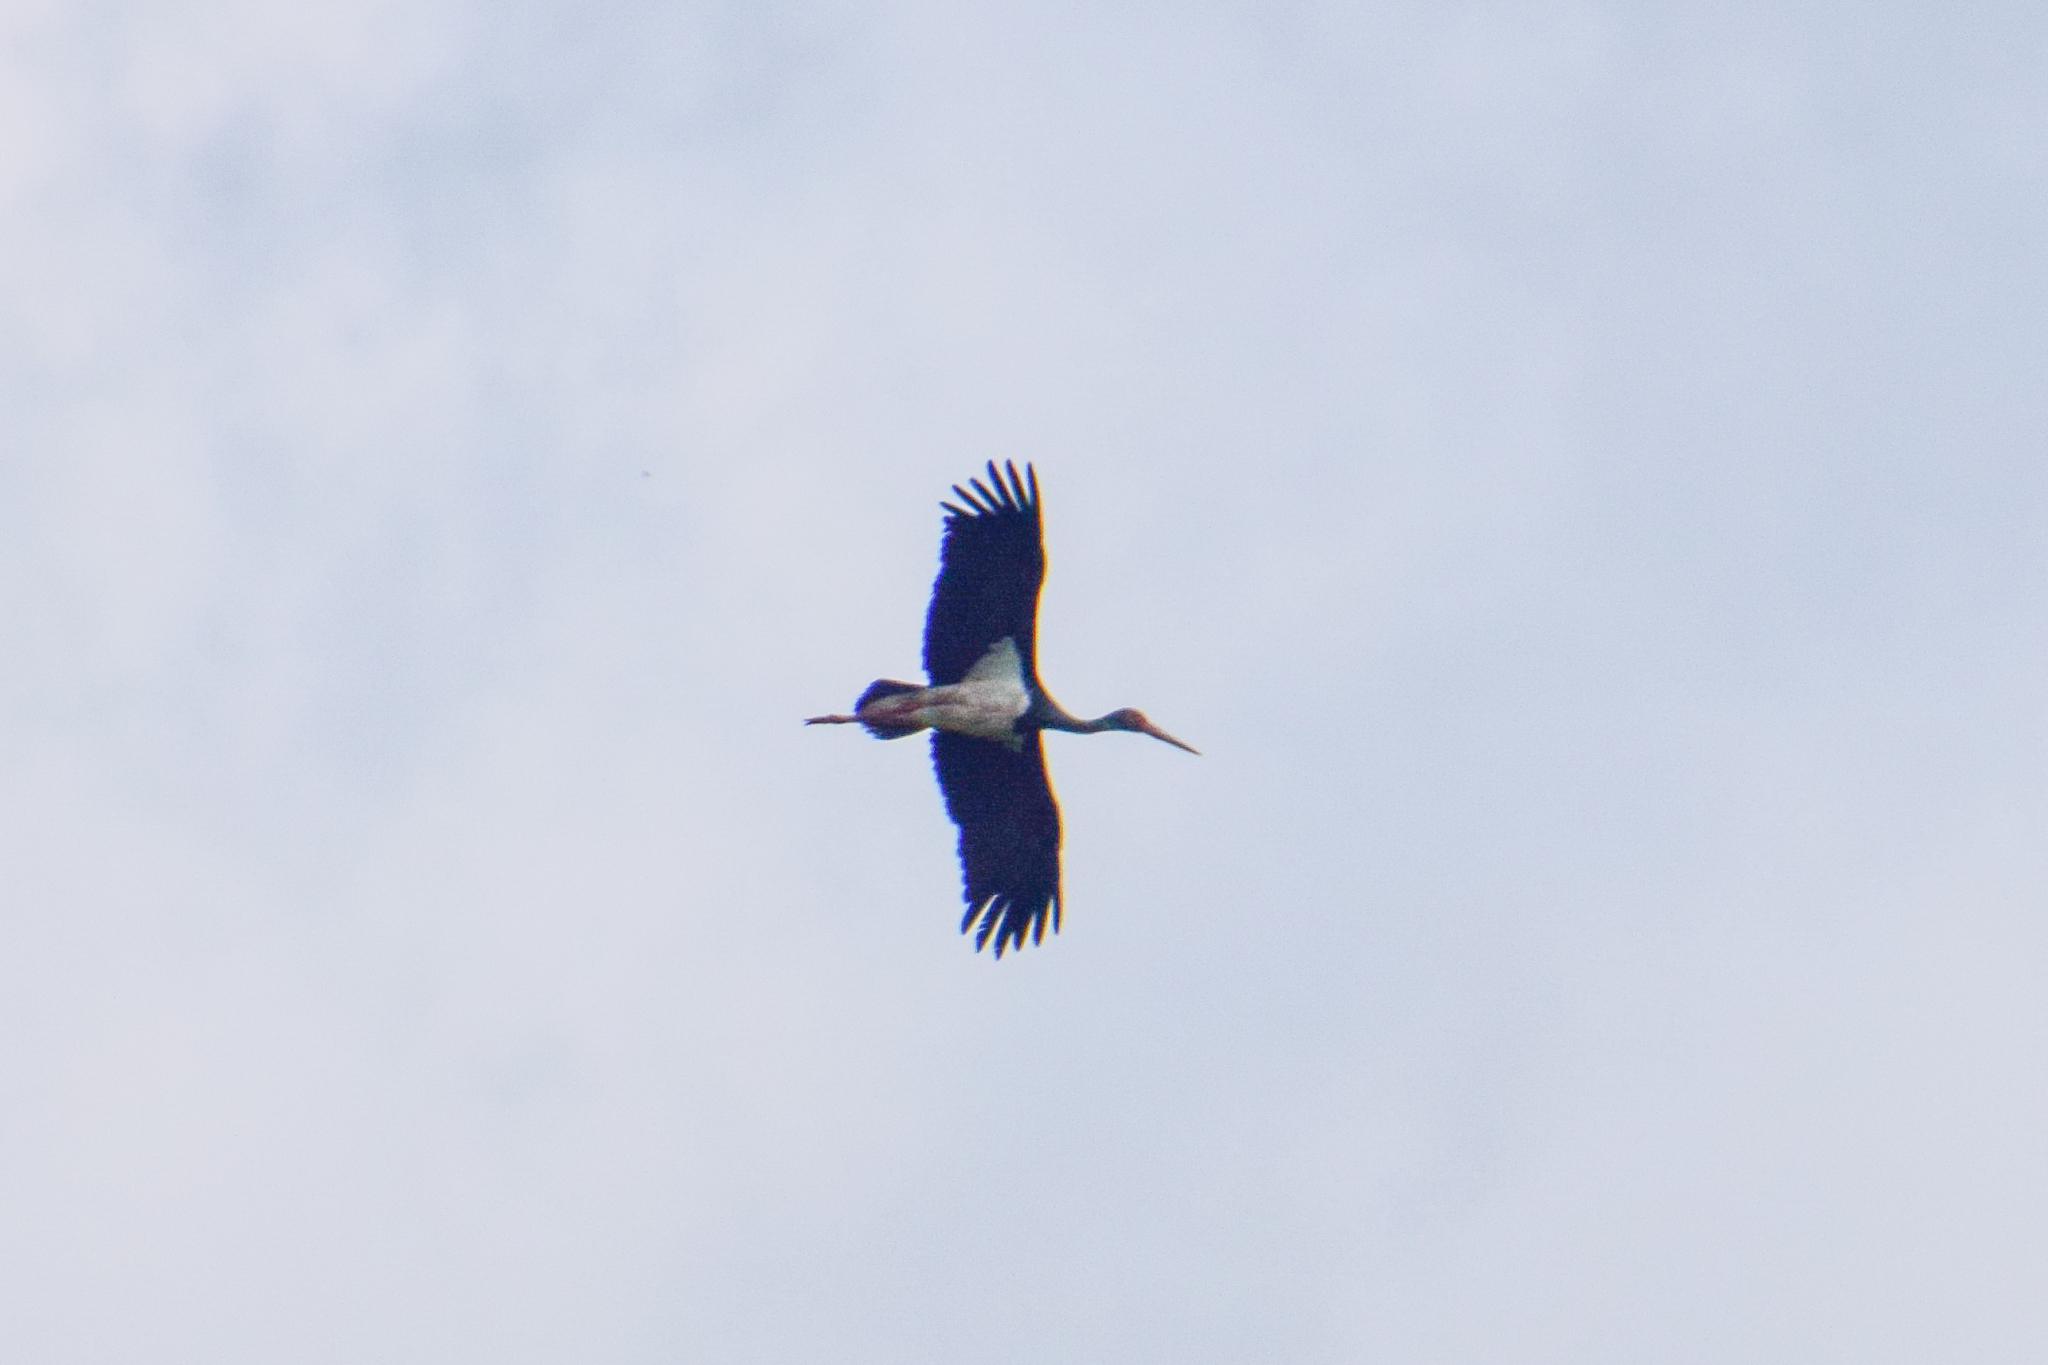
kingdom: Animalia
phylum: Chordata
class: Aves
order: Ciconiiformes
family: Ciconiidae
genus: Ciconia
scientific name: Ciconia nigra
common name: Black stork
